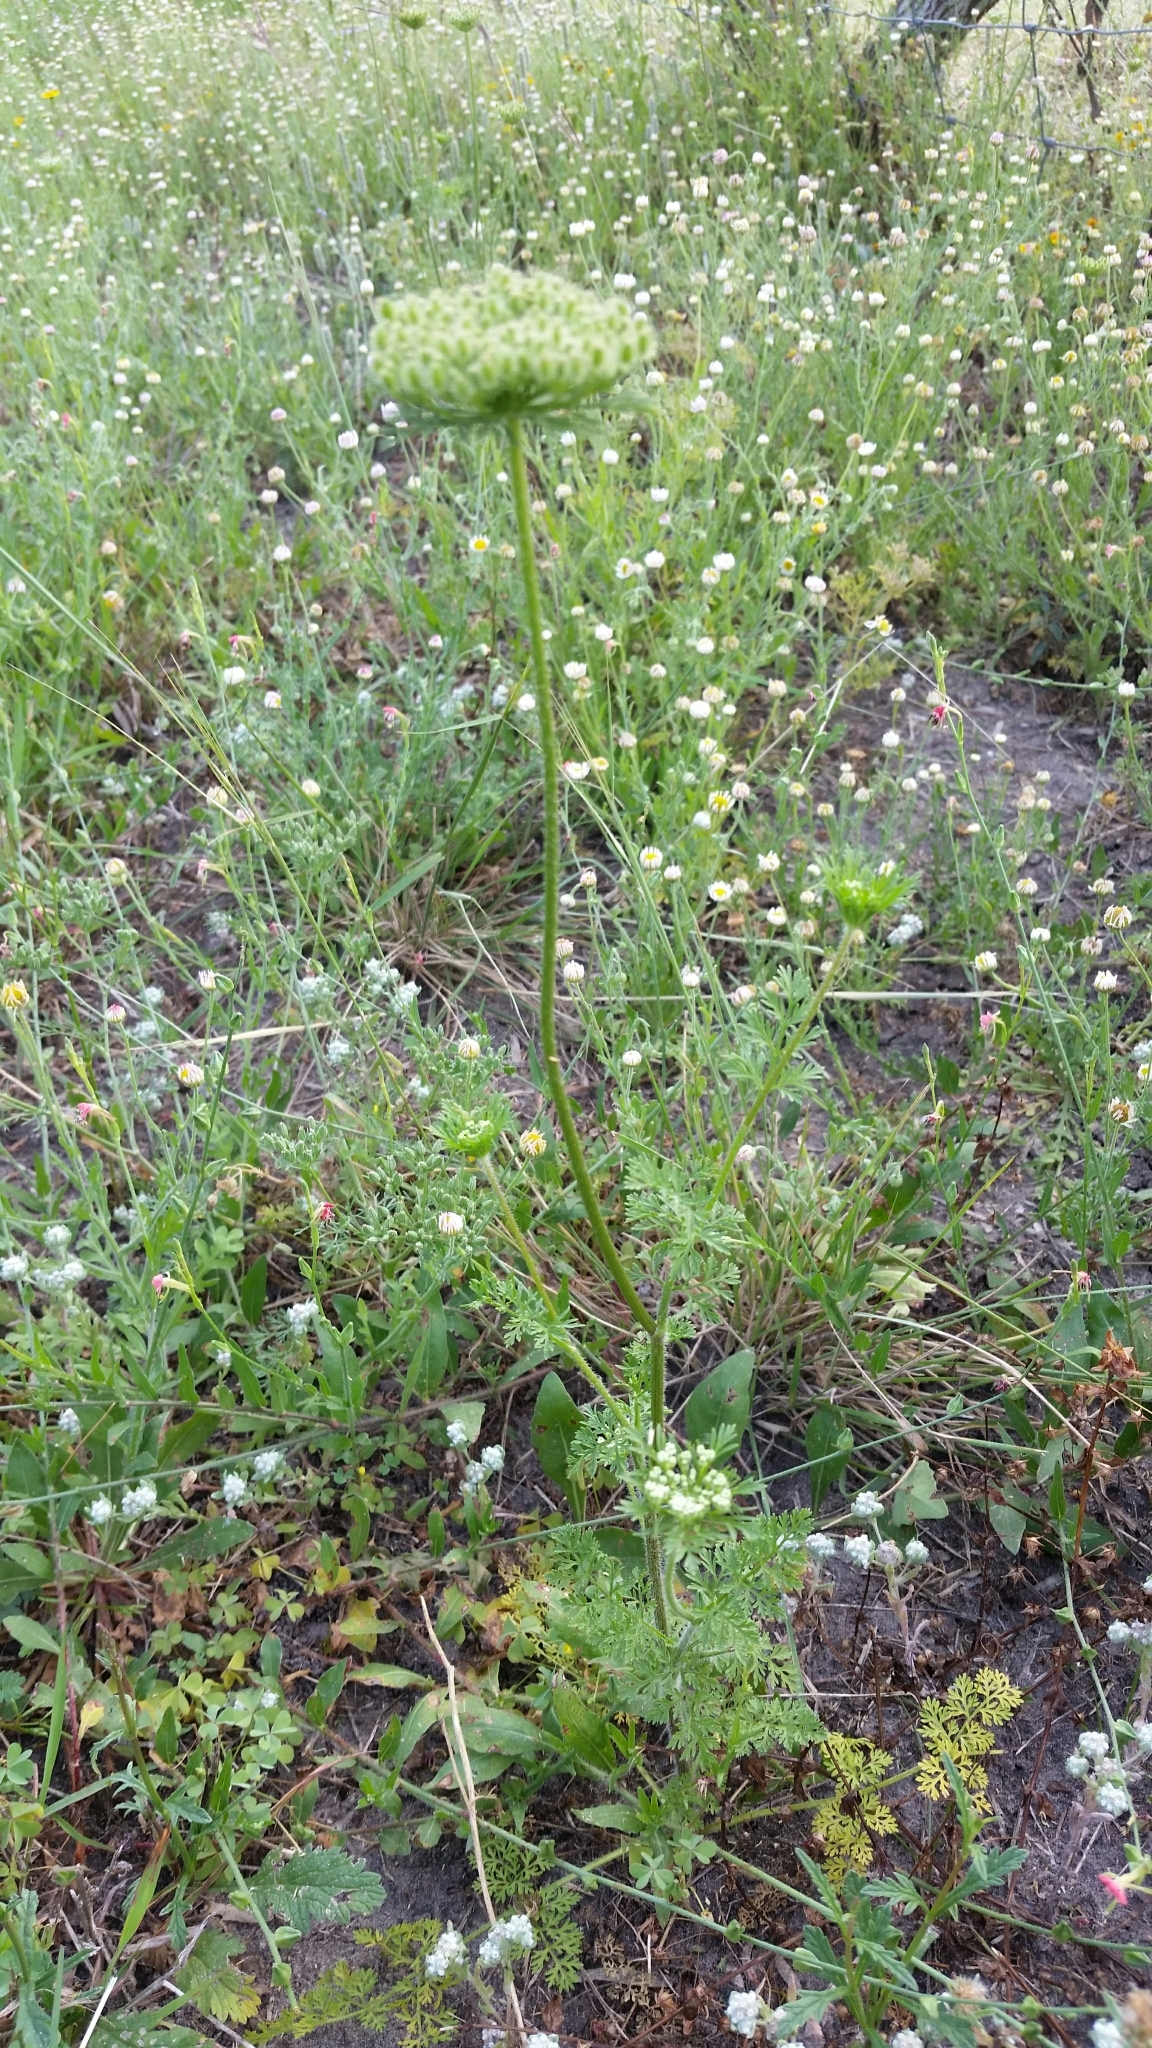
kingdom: Plantae
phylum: Tracheophyta
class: Magnoliopsida
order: Apiales
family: Apiaceae
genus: Daucus
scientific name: Daucus pusillus
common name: Southwest wild carrot
